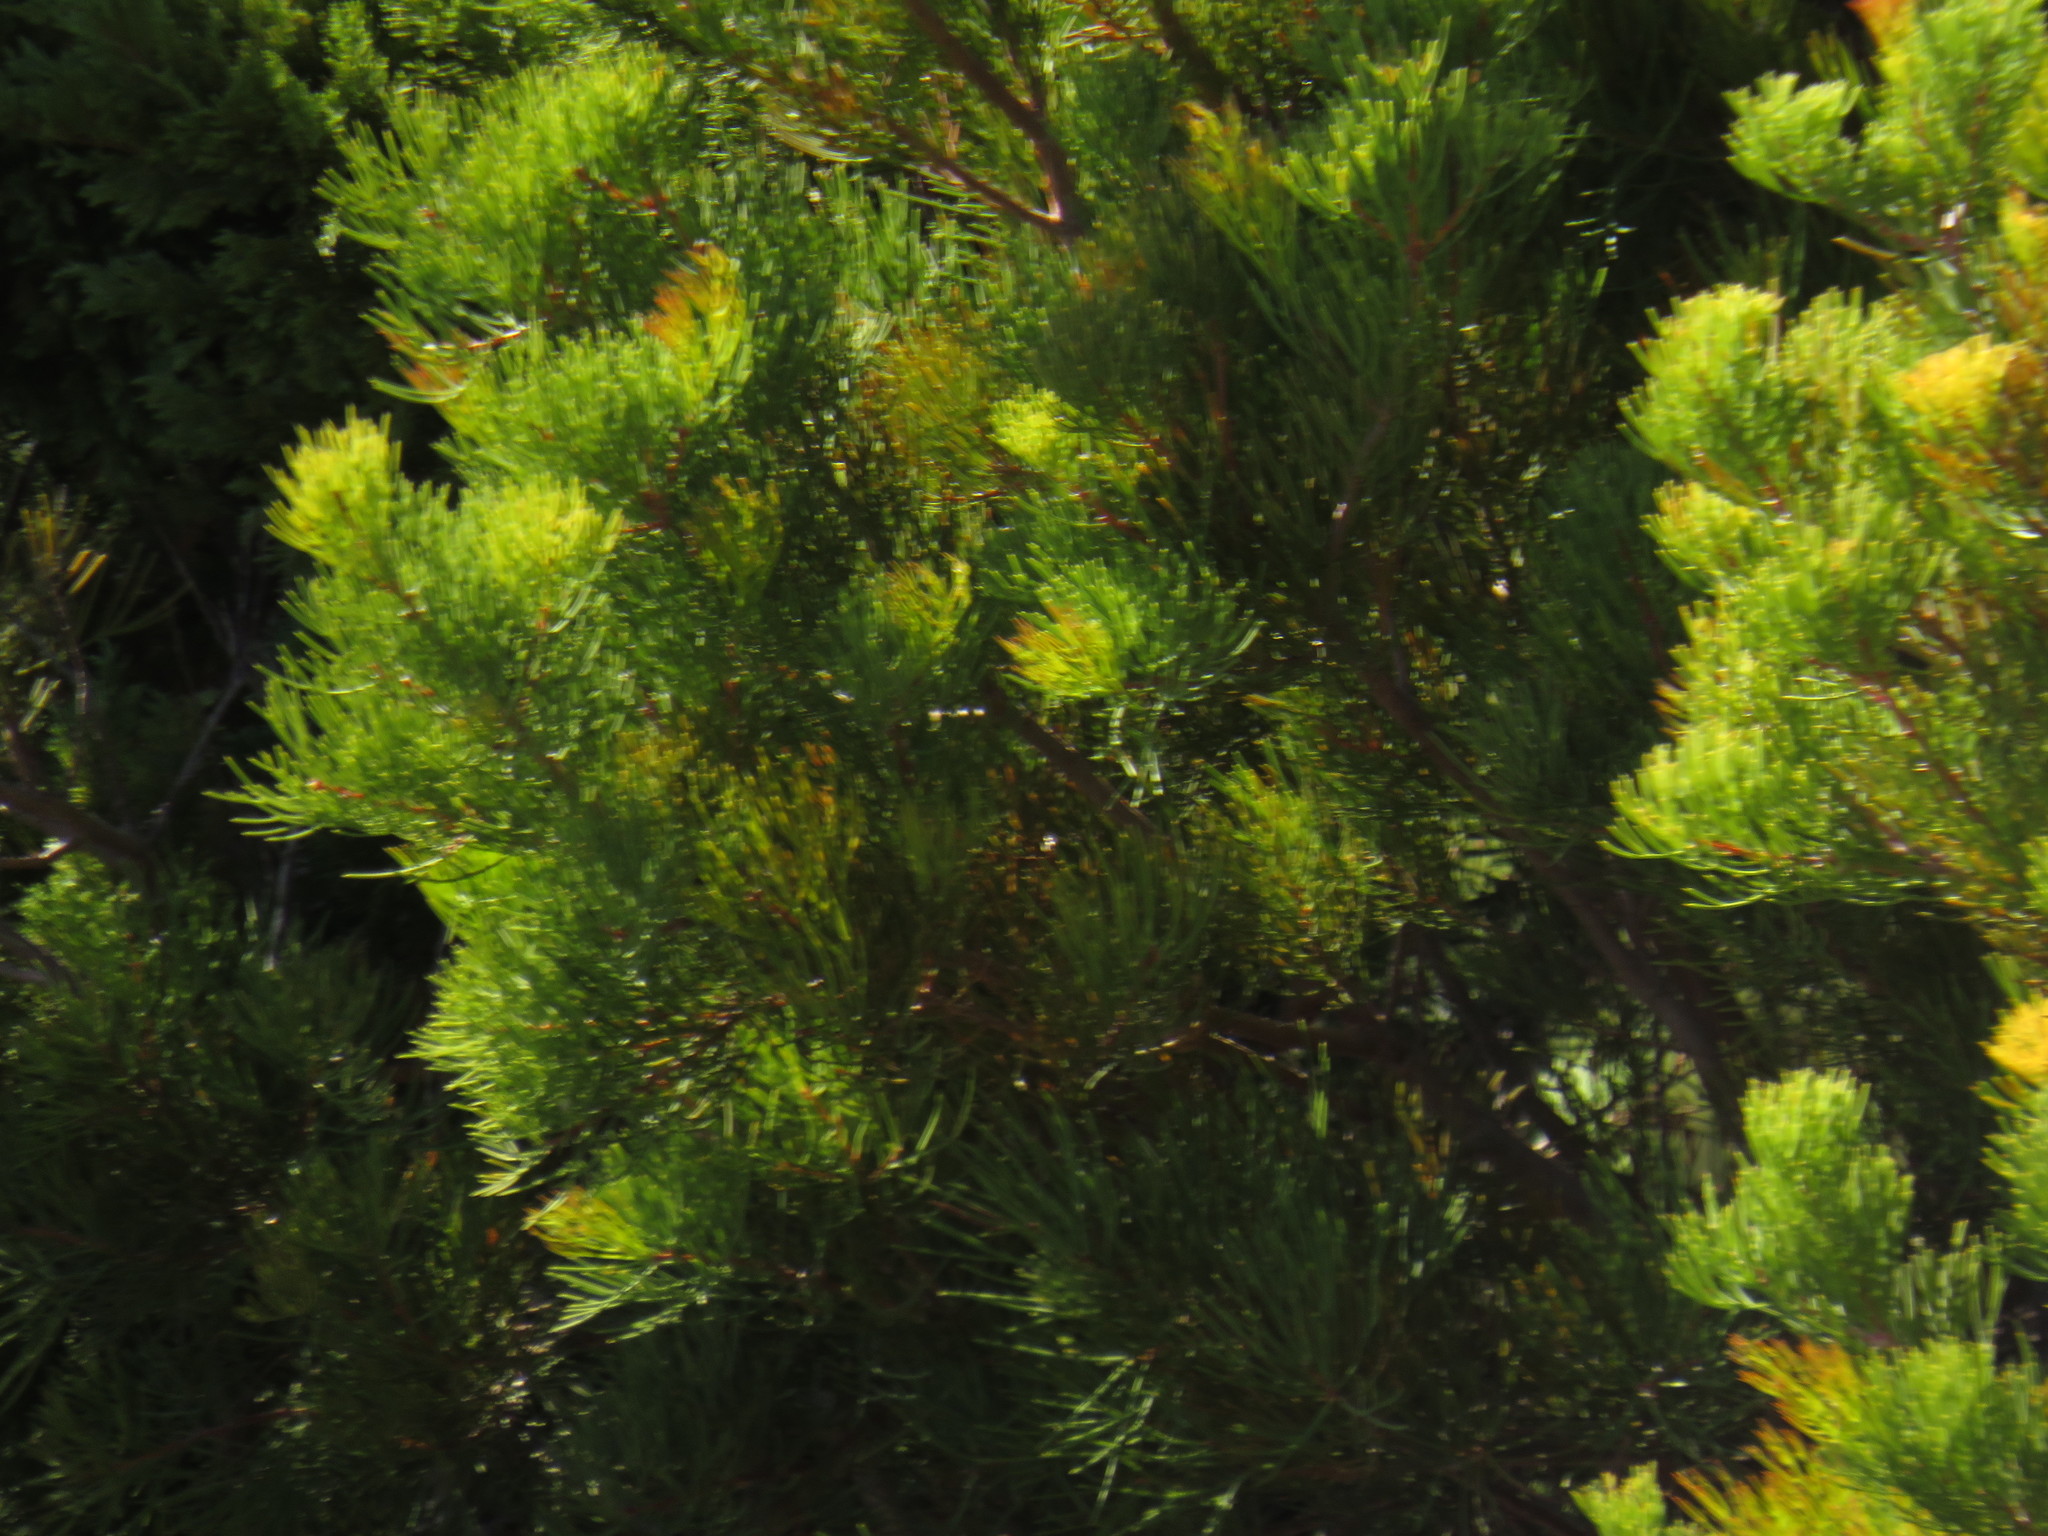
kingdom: Plantae
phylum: Tracheophyta
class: Magnoliopsida
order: Proteales
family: Proteaceae
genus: Hakea
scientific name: Hakea drupacea
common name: Sweet hakea
